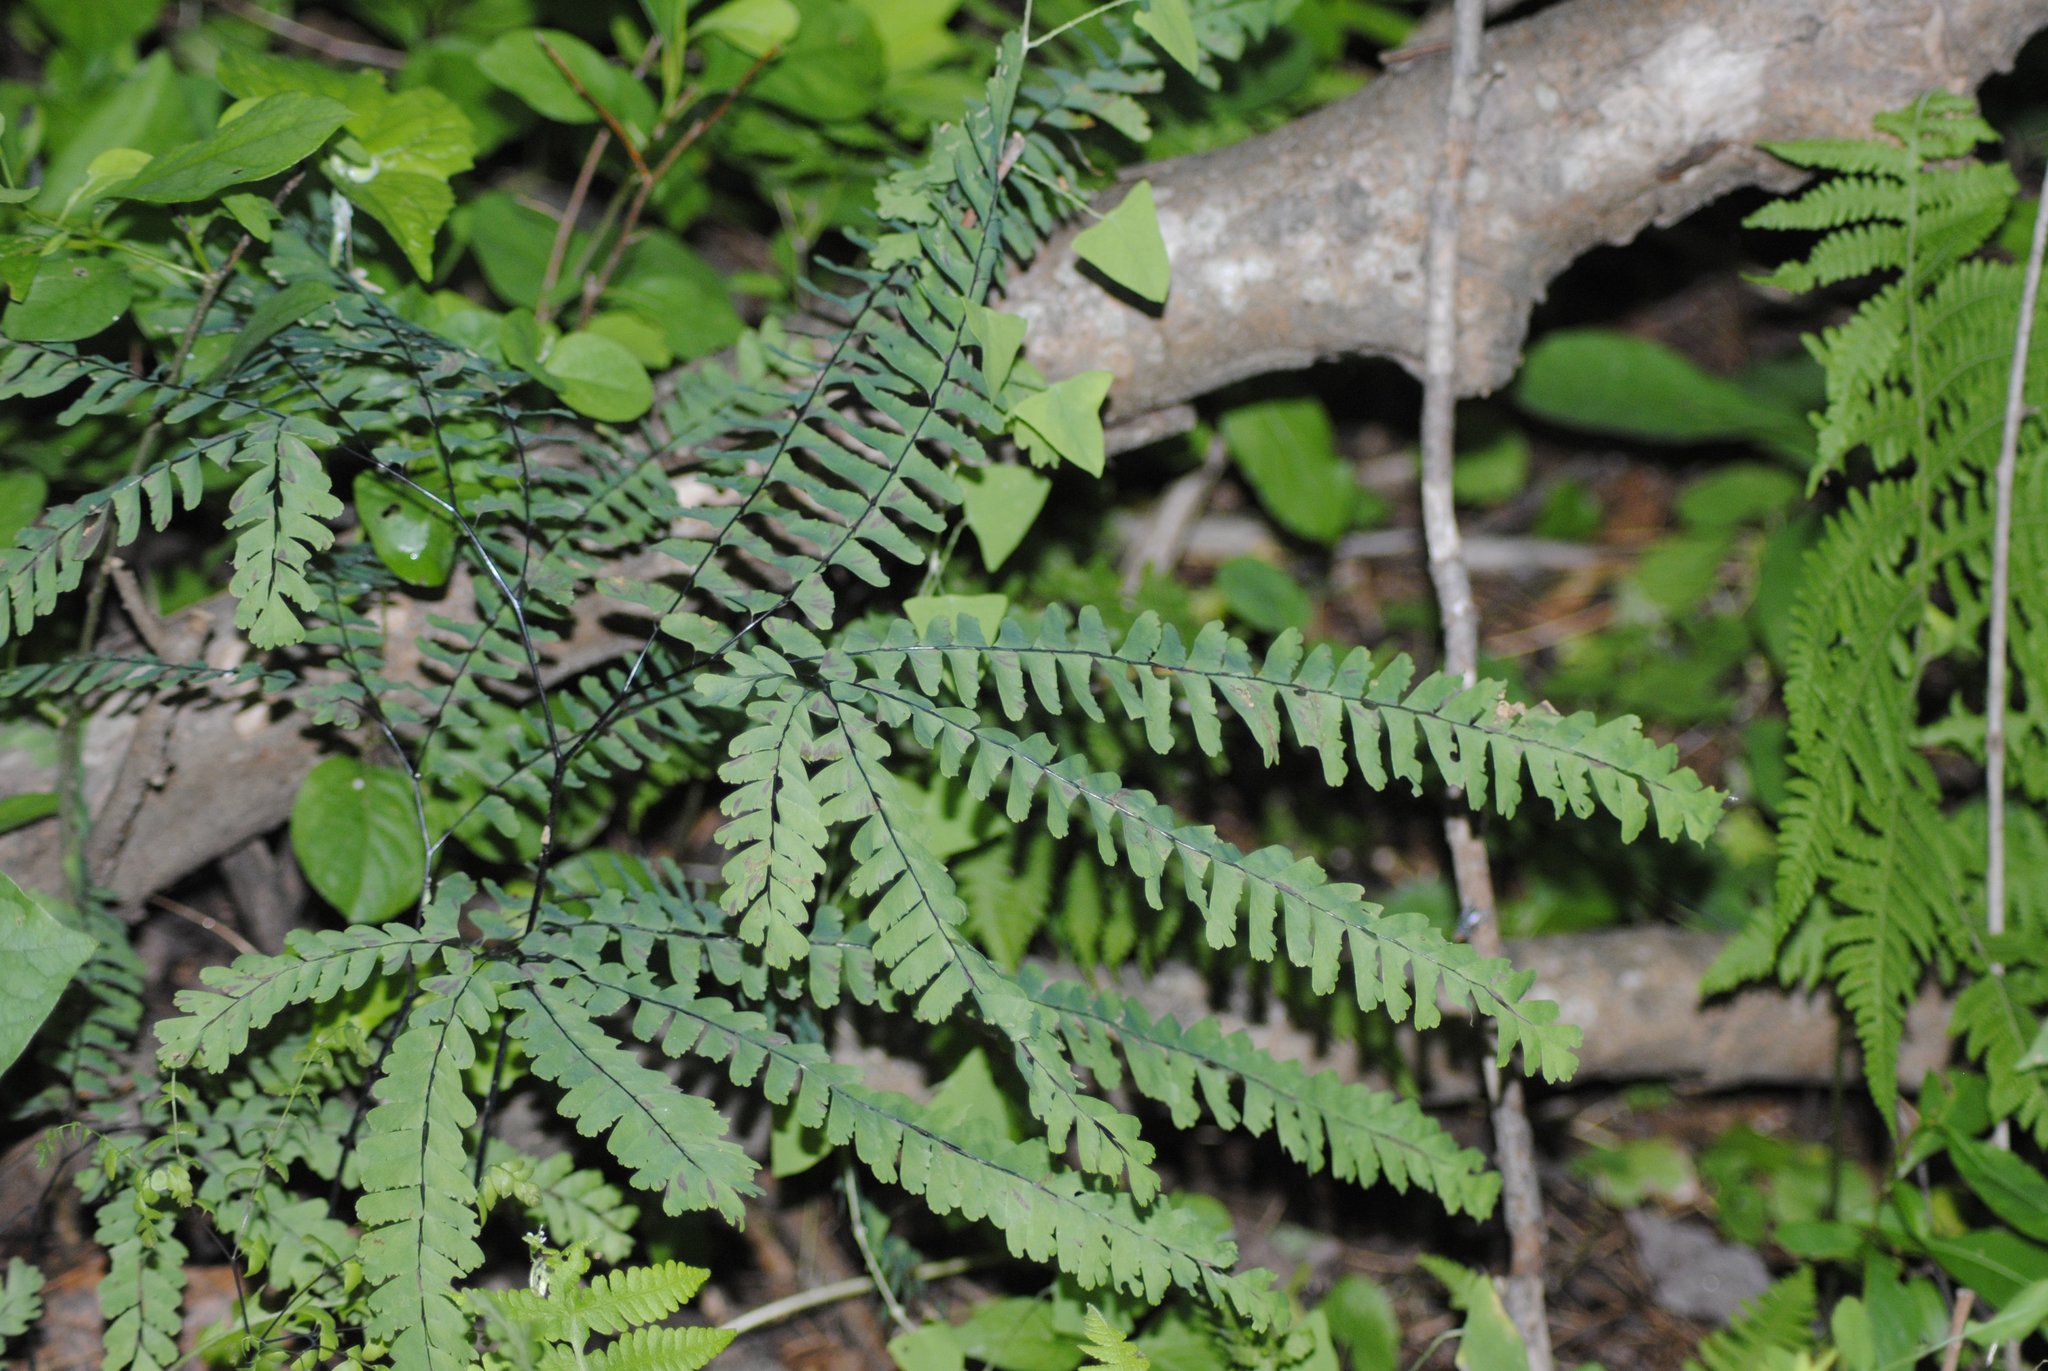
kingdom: Plantae
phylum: Tracheophyta
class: Polypodiopsida
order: Polypodiales
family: Pteridaceae
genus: Adiantum
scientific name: Adiantum pedatum
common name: Five-finger fern
